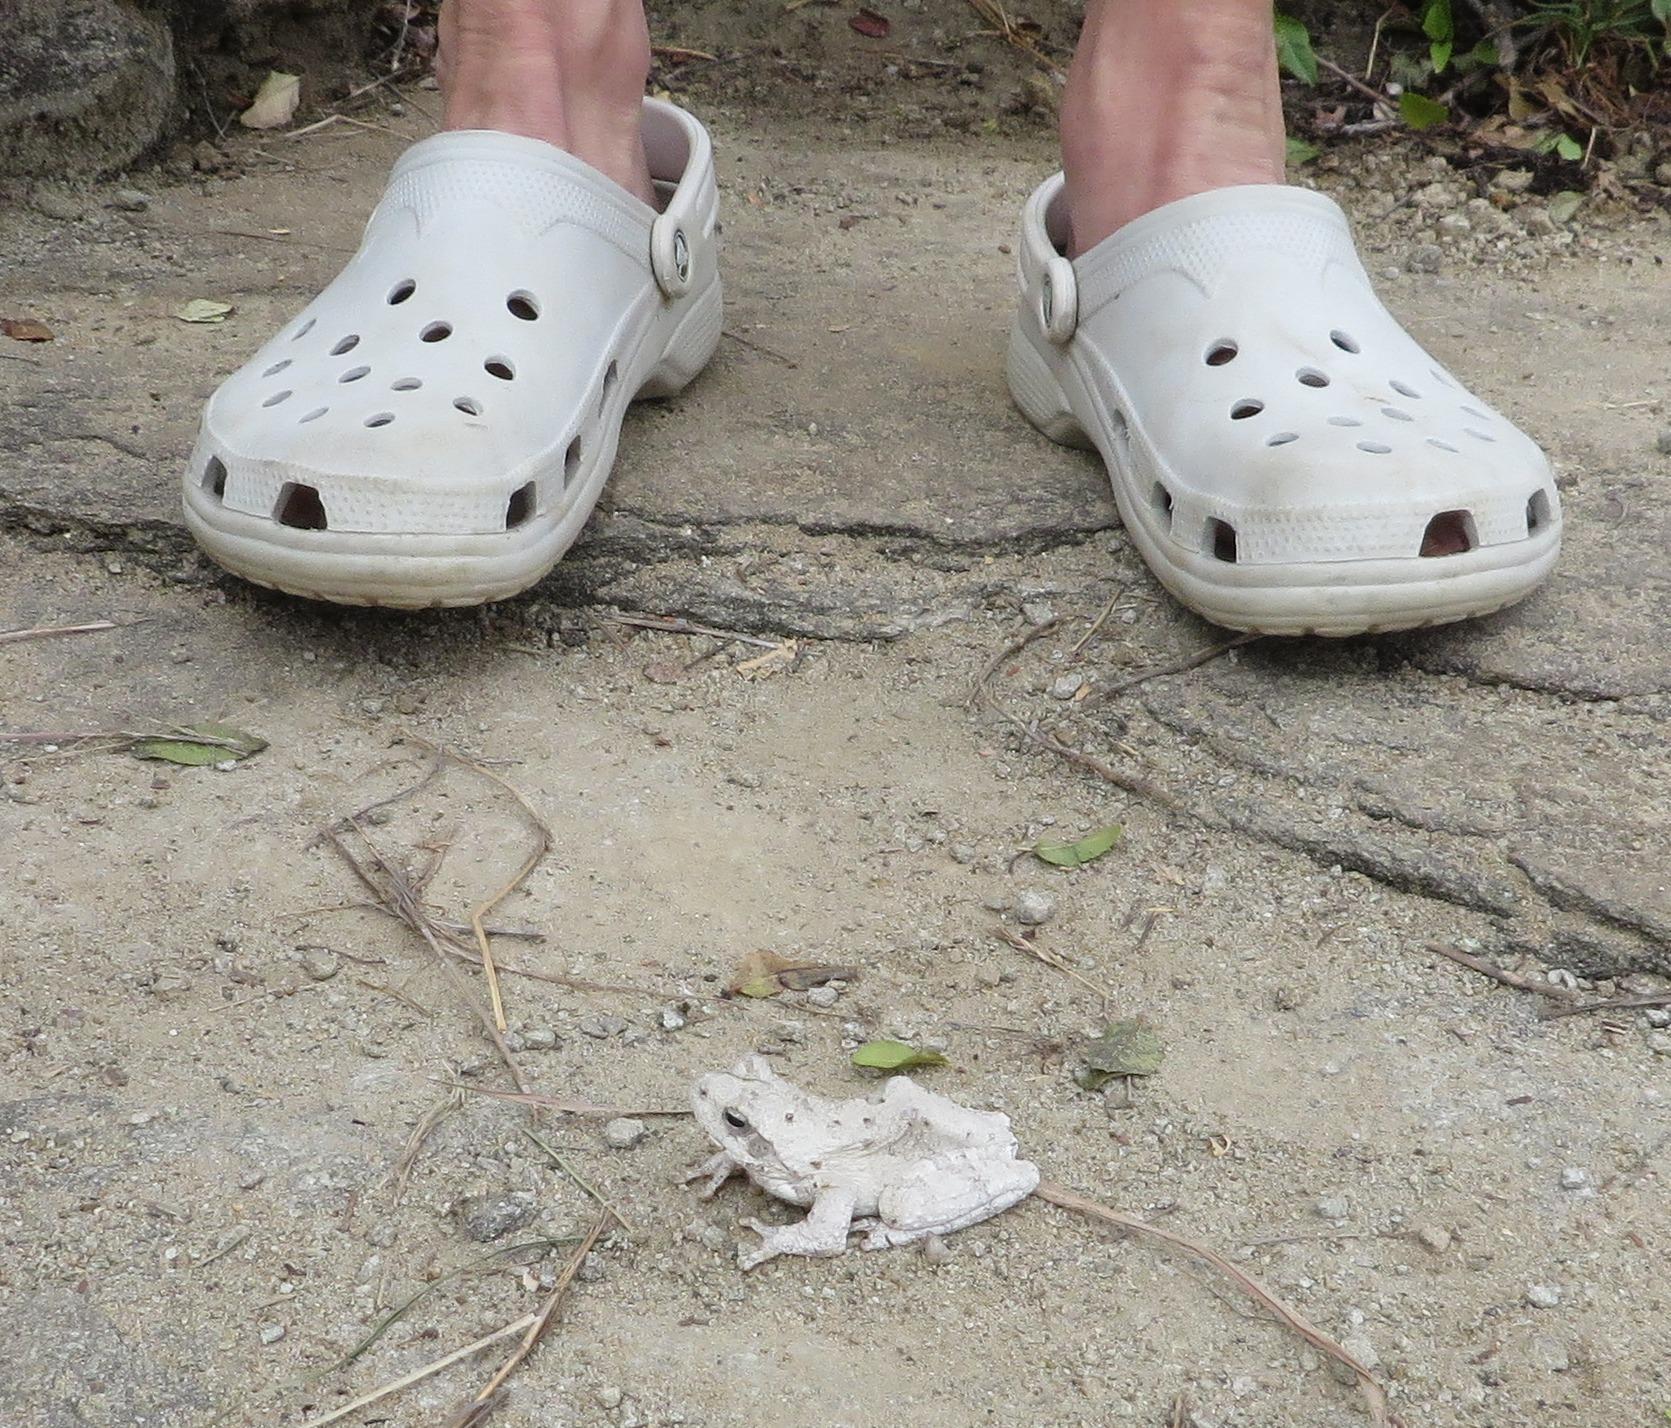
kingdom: Animalia
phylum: Chordata
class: Amphibia
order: Anura
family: Rhacophoridae
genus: Chiromantis
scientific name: Chiromantis xerampelina
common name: African gray treefrog
